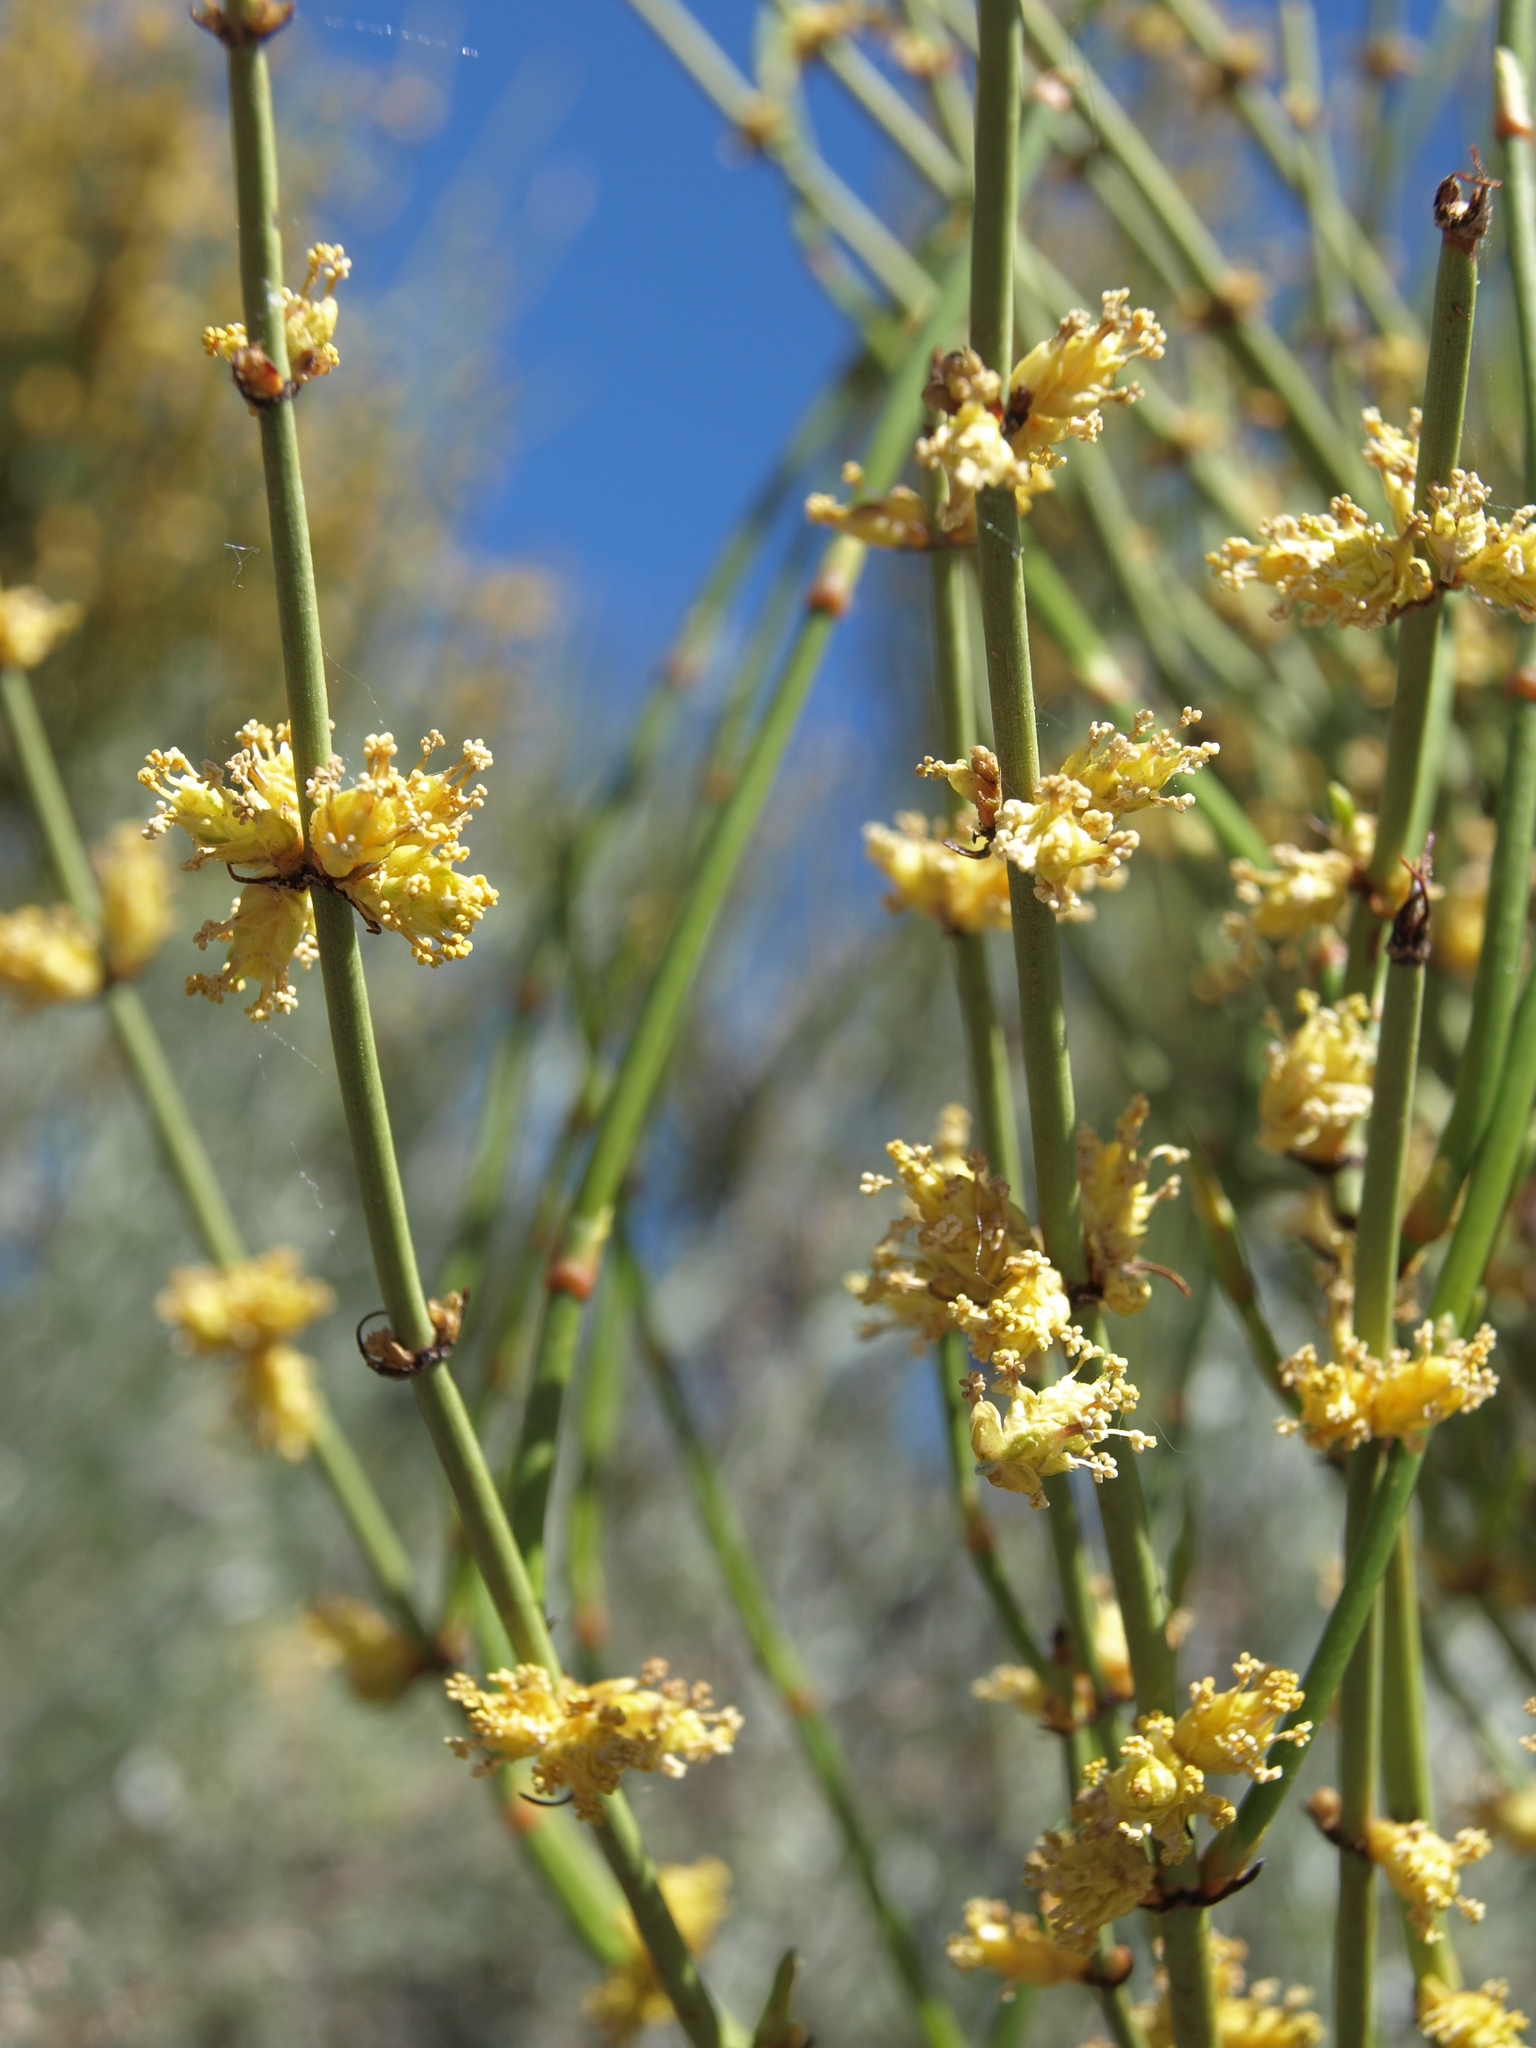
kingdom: Plantae
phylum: Tracheophyta
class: Gnetopsida
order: Ephedrales
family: Ephedraceae
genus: Ephedra
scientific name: Ephedra viridis
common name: Green ephedra
